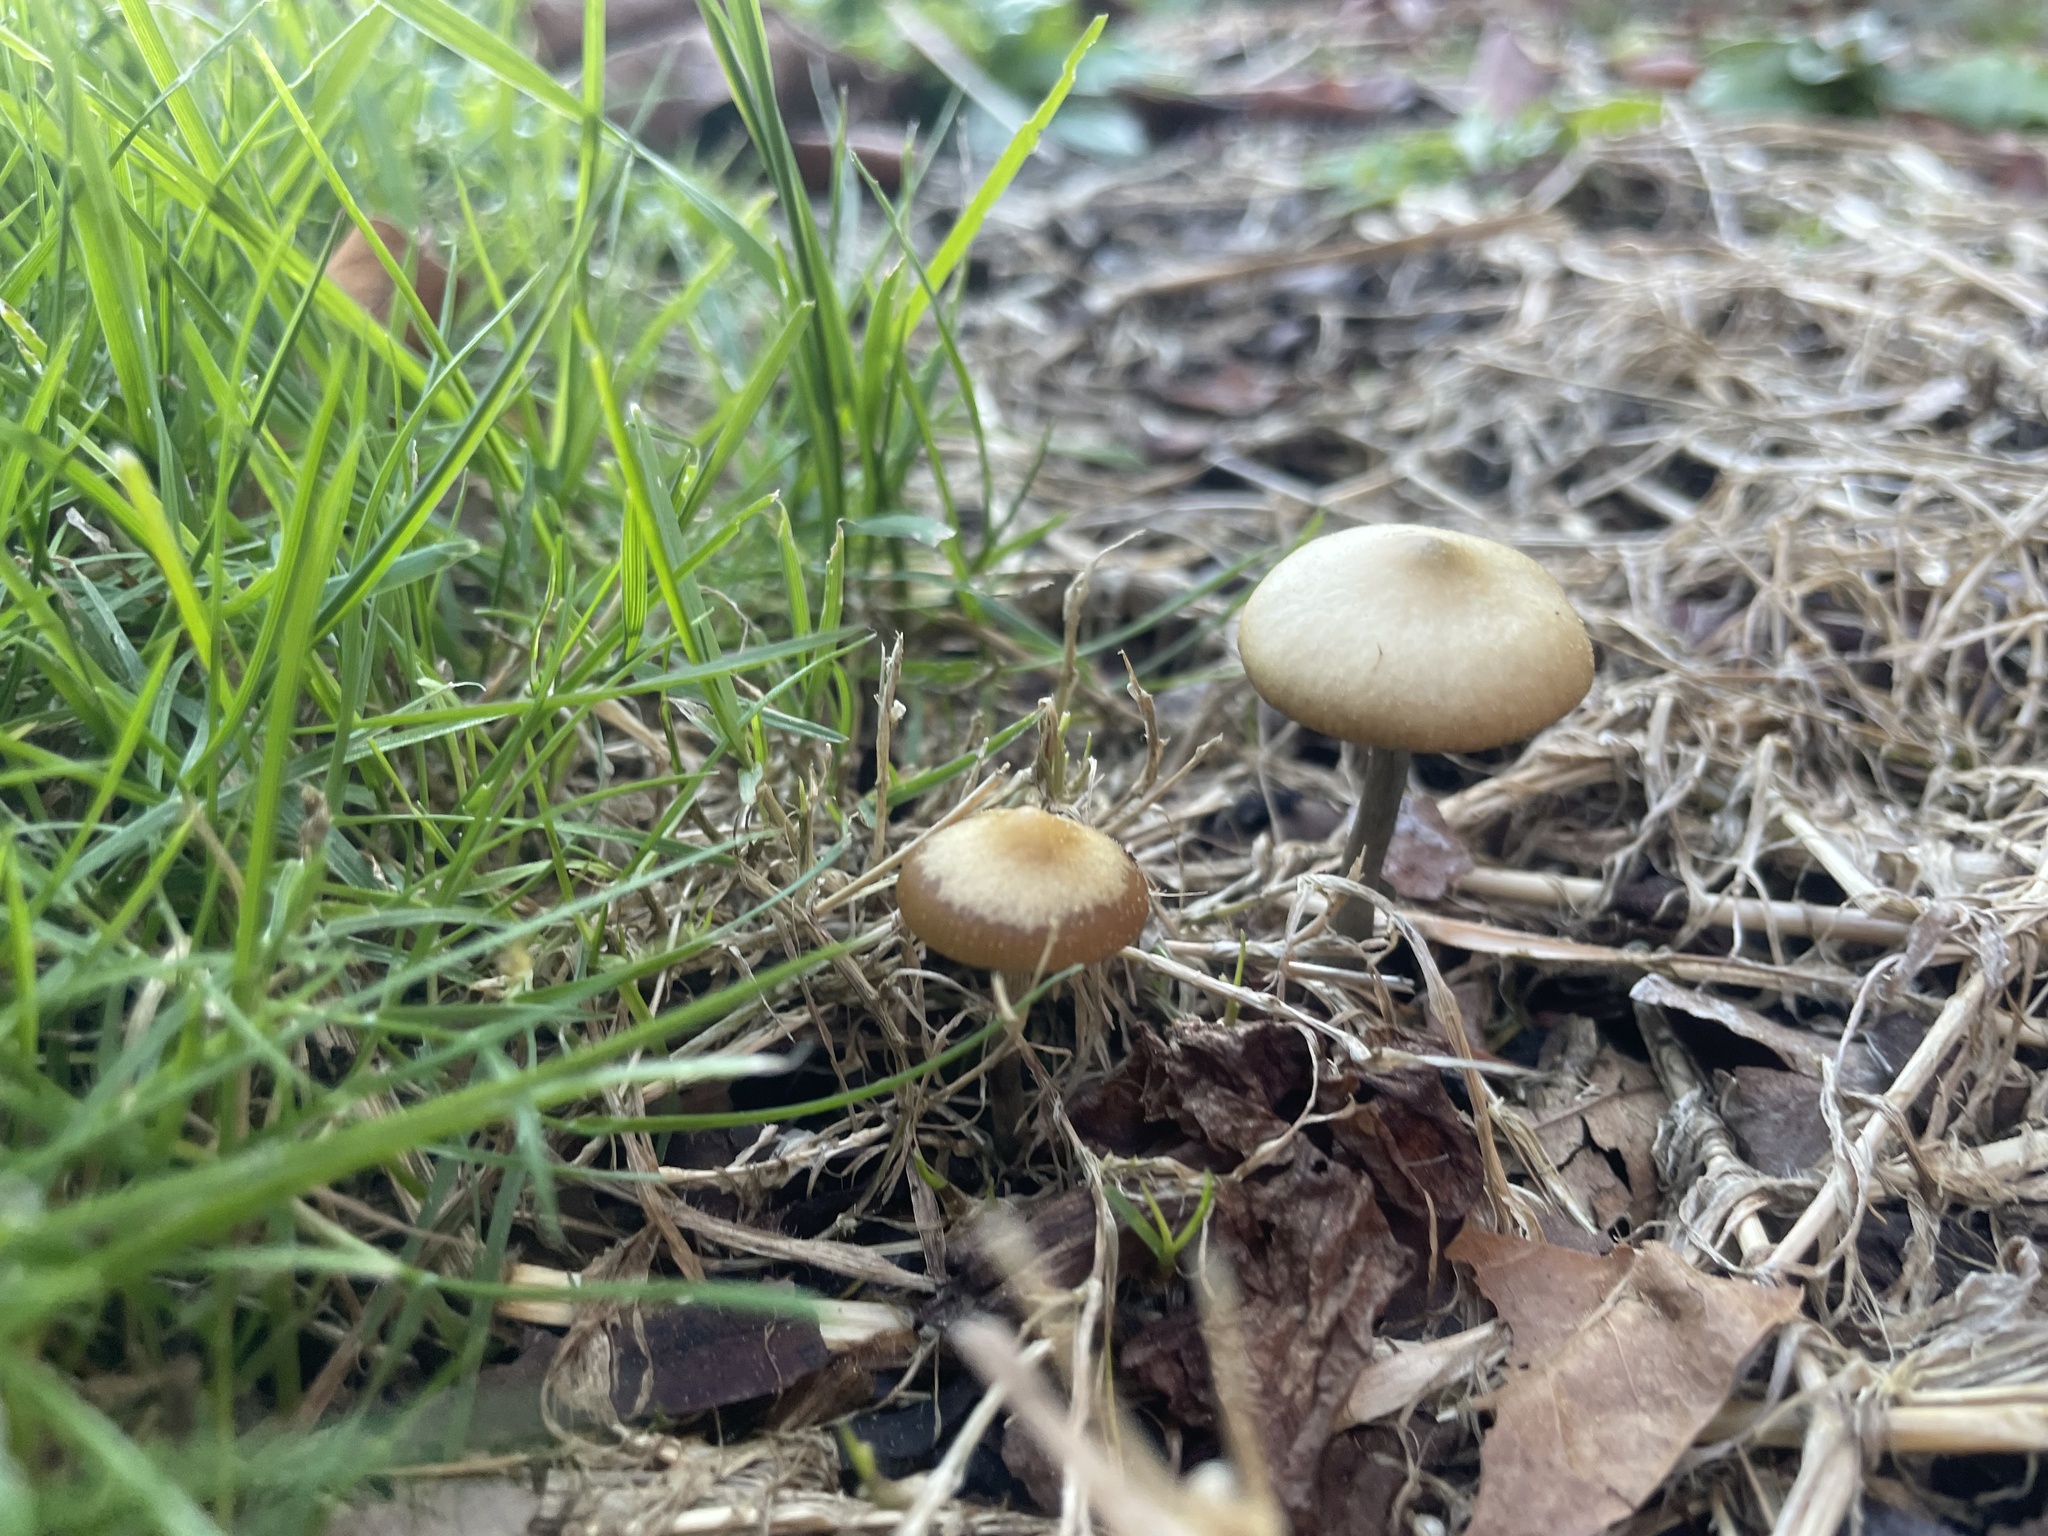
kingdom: Fungi
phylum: Basidiomycota
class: Agaricomycetes
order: Agaricales
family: Hymenogastraceae
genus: Psilocybe
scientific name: Psilocybe allenii
